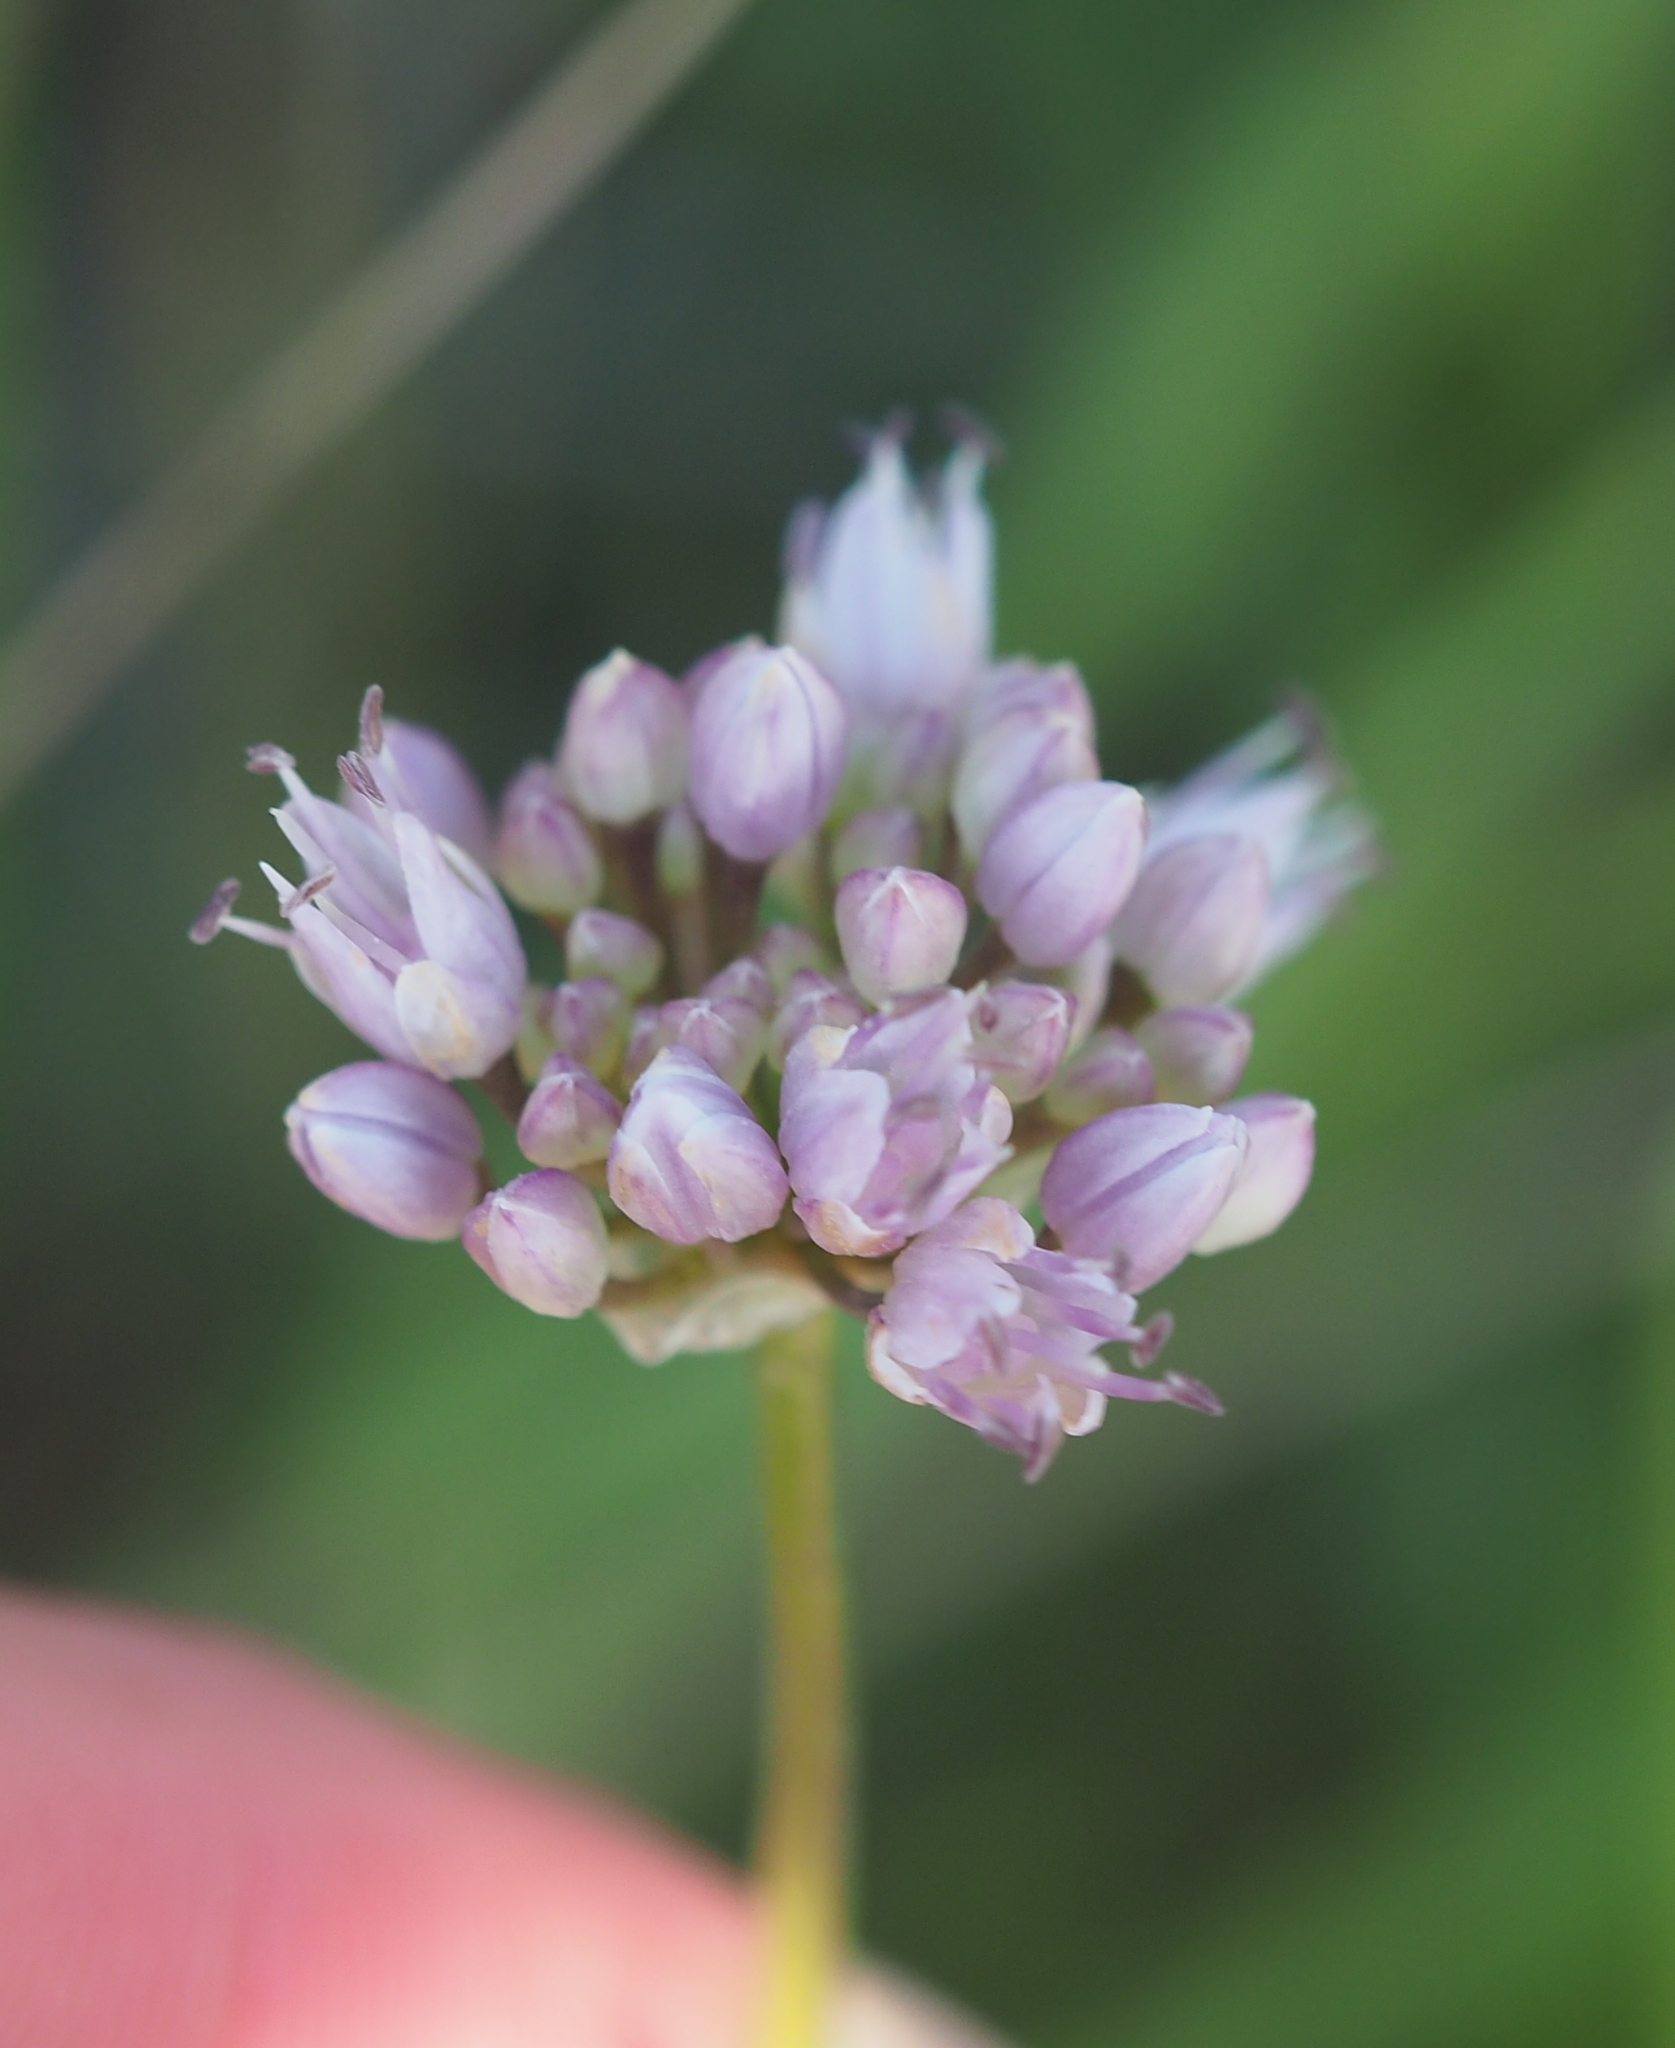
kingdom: Plantae
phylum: Tracheophyta
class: Liliopsida
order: Asparagales
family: Amaryllidaceae
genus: Allium
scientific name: Allium lusitanicum
